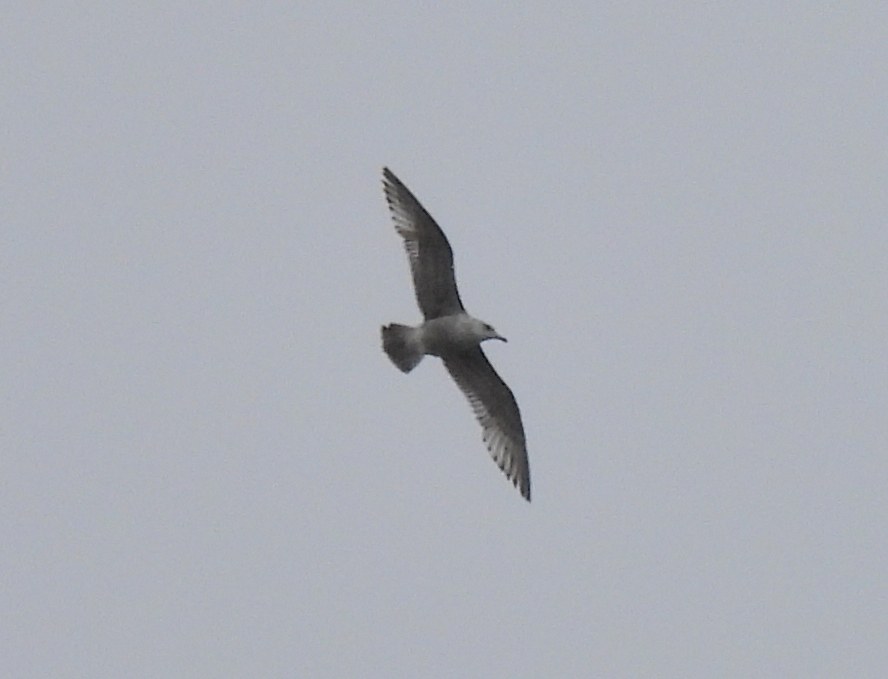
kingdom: Animalia
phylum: Chordata
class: Aves
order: Charadriiformes
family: Laridae
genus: Larus
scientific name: Larus argentatus
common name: Herring gull
